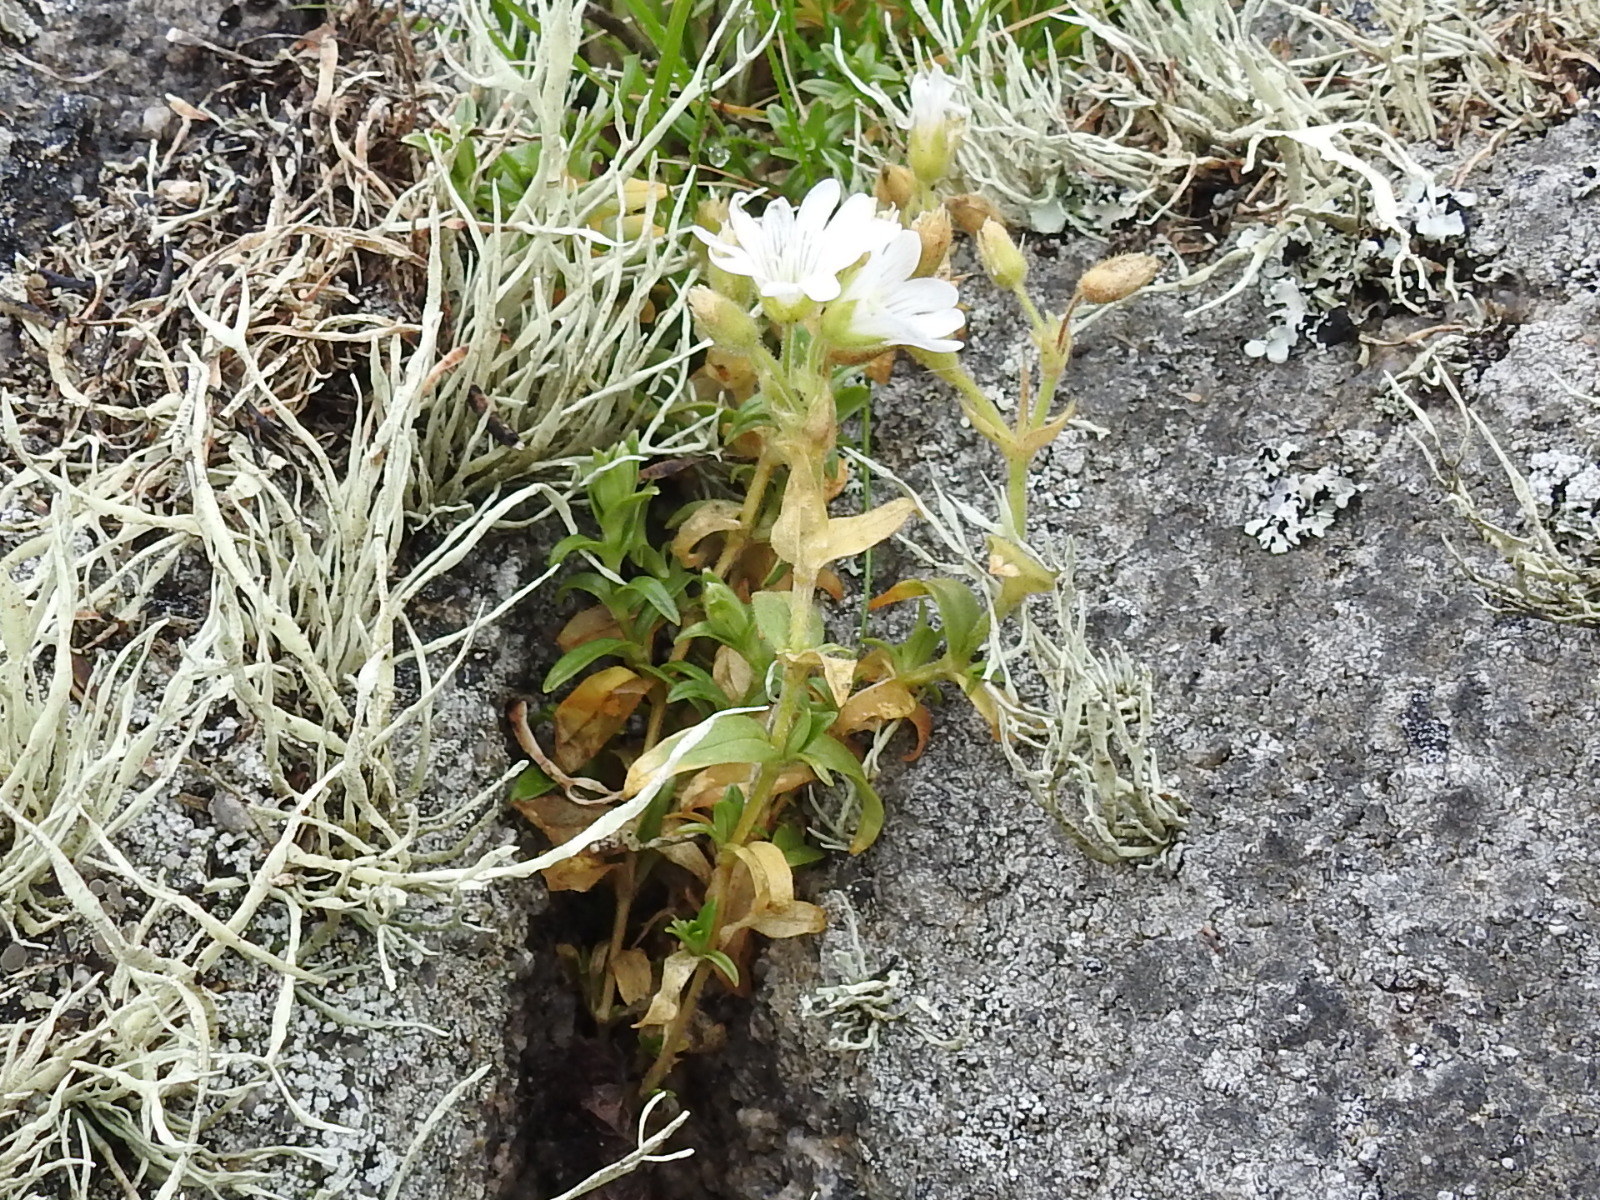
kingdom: Plantae
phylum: Tracheophyta
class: Magnoliopsida
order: Caryophyllales
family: Caryophyllaceae
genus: Cerastium
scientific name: Cerastium viride
